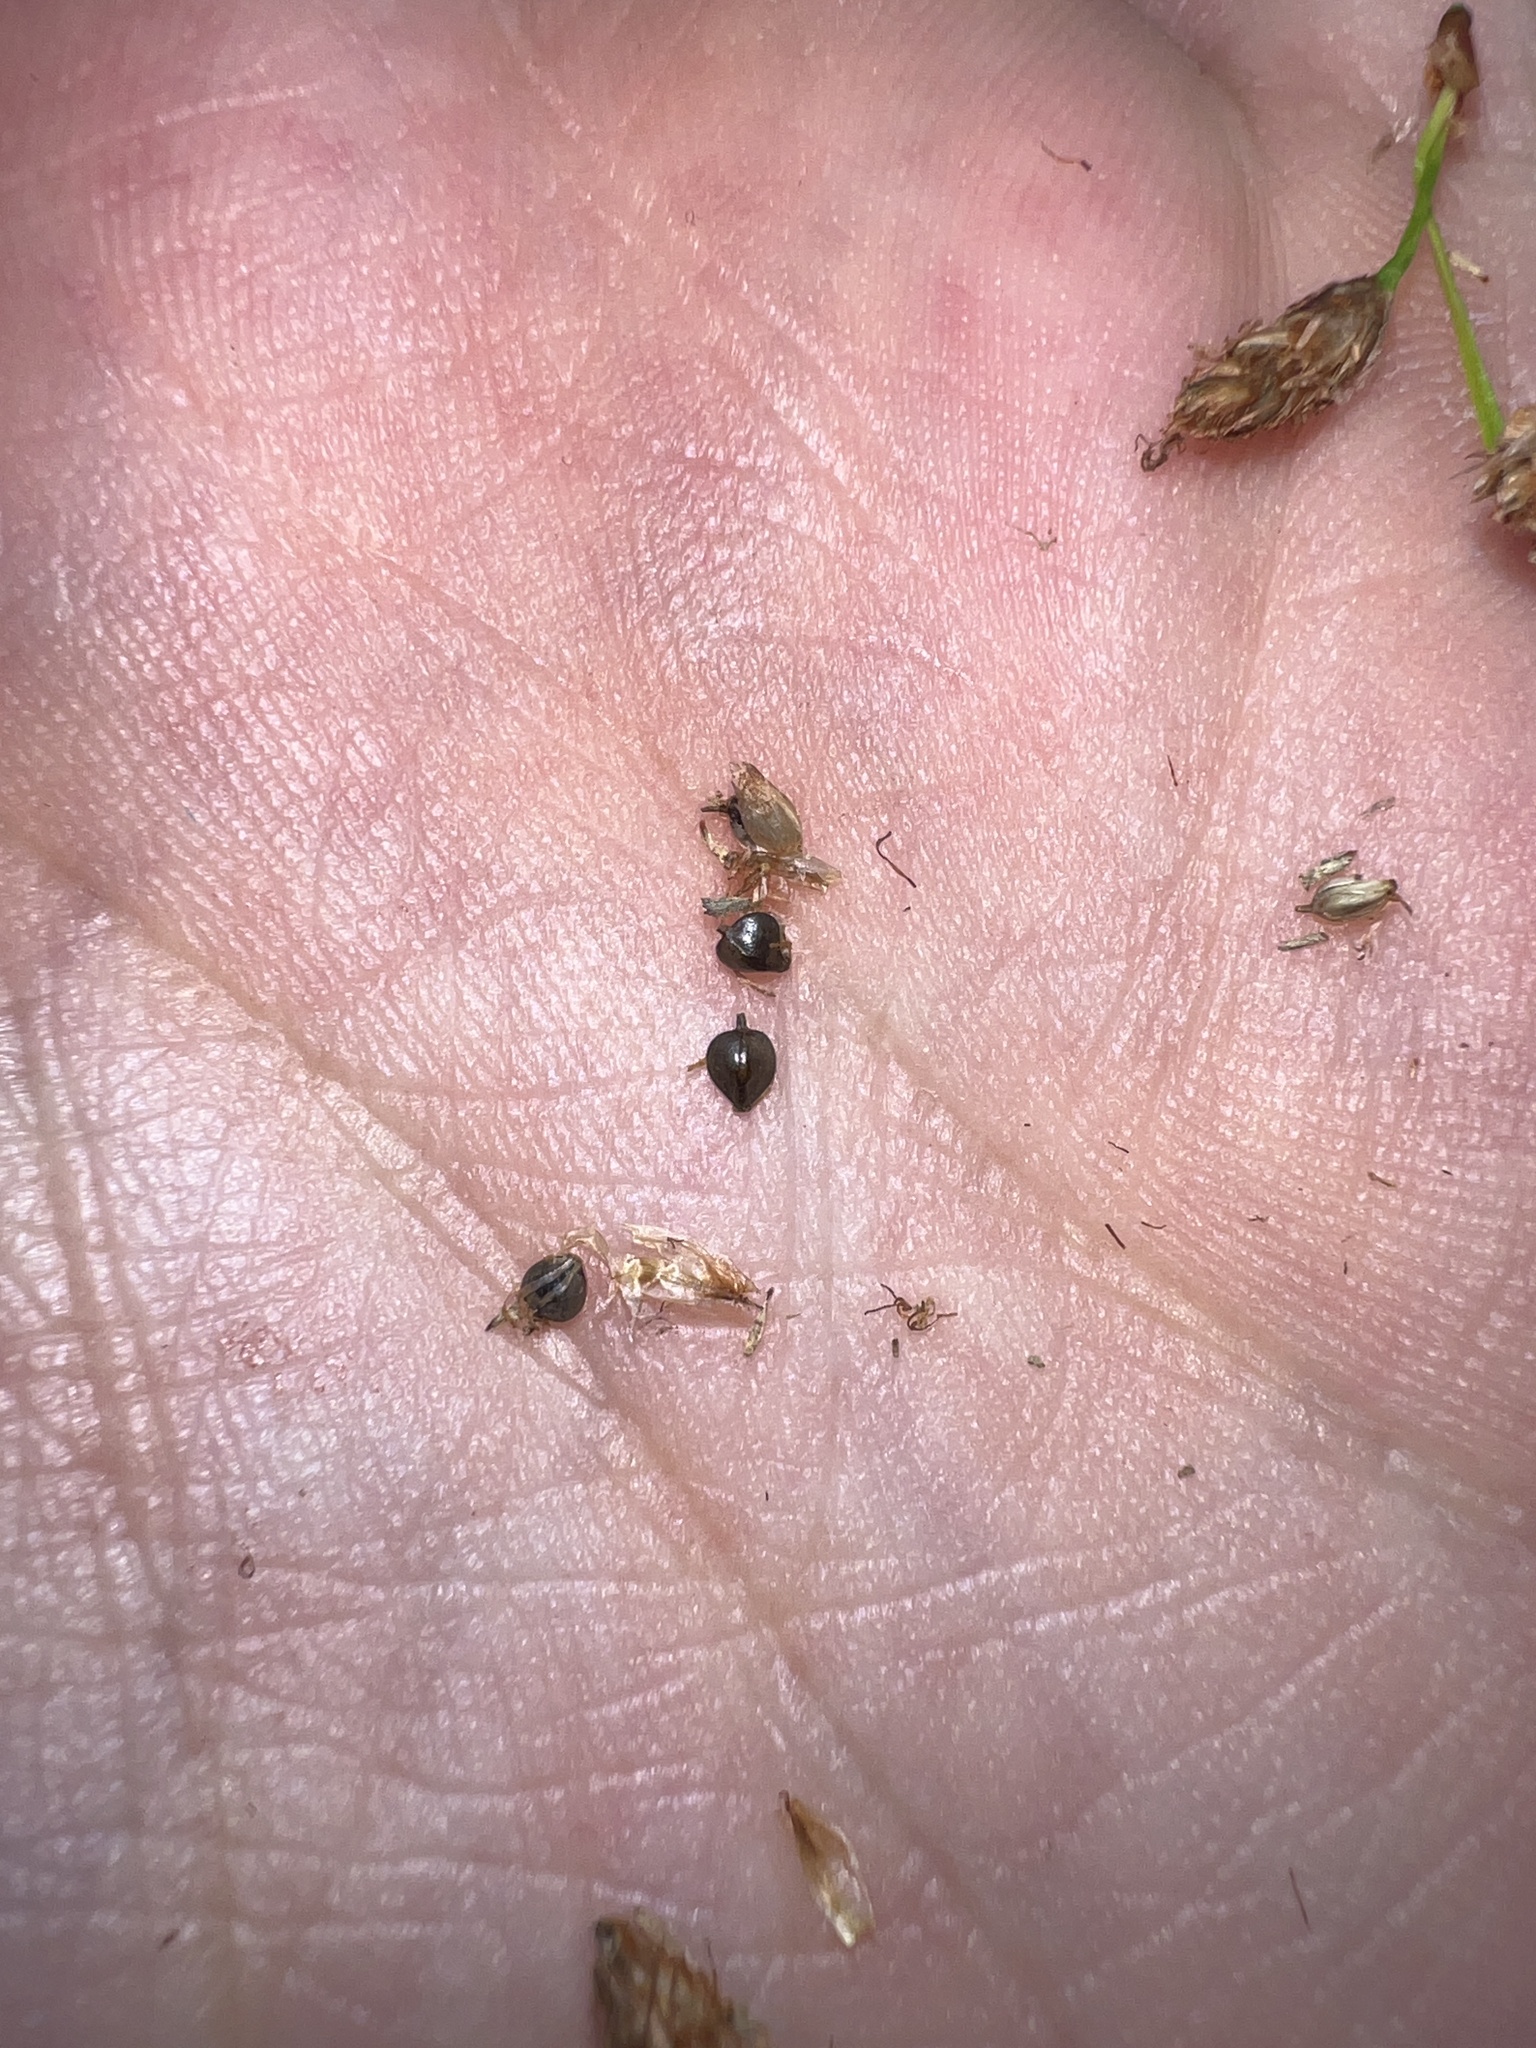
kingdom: Plantae
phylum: Tracheophyta
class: Liliopsida
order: Poales
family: Cyperaceae
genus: Schoenoplectus
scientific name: Schoenoplectus heterochaetus
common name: Pale great bulrush
